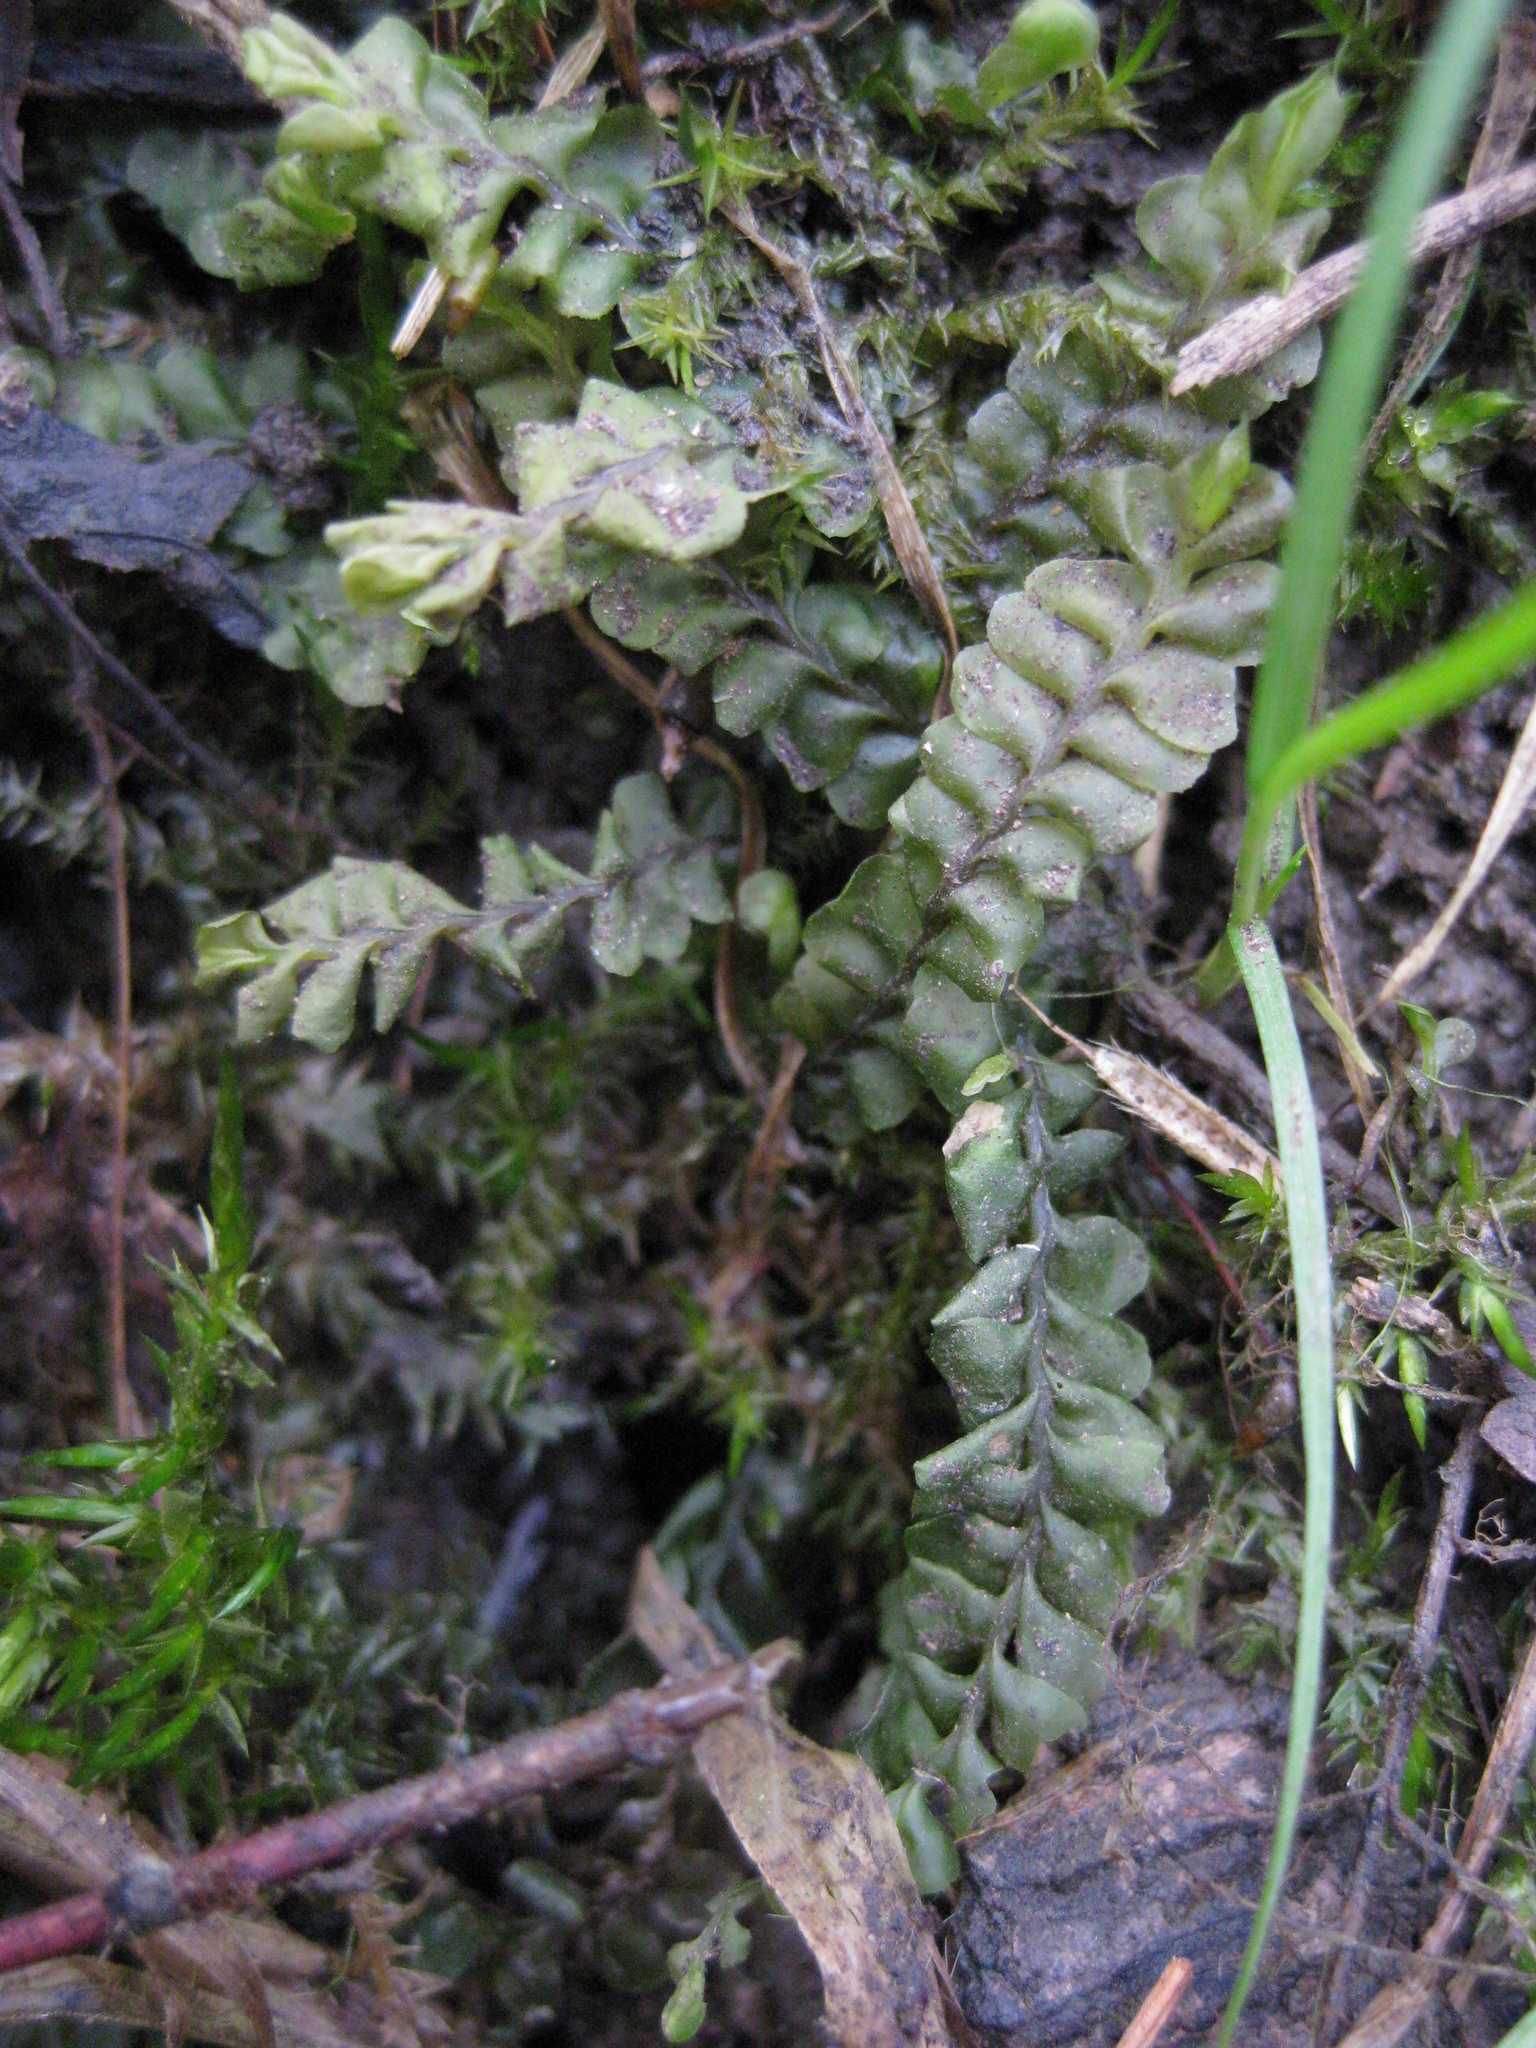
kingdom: Plantae
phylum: Marchantiophyta
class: Jungermanniopsida
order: Jungermanniales
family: Plagiochilaceae
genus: Plagiochila
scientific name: Plagiochila asplenioides
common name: Greater featherwort
